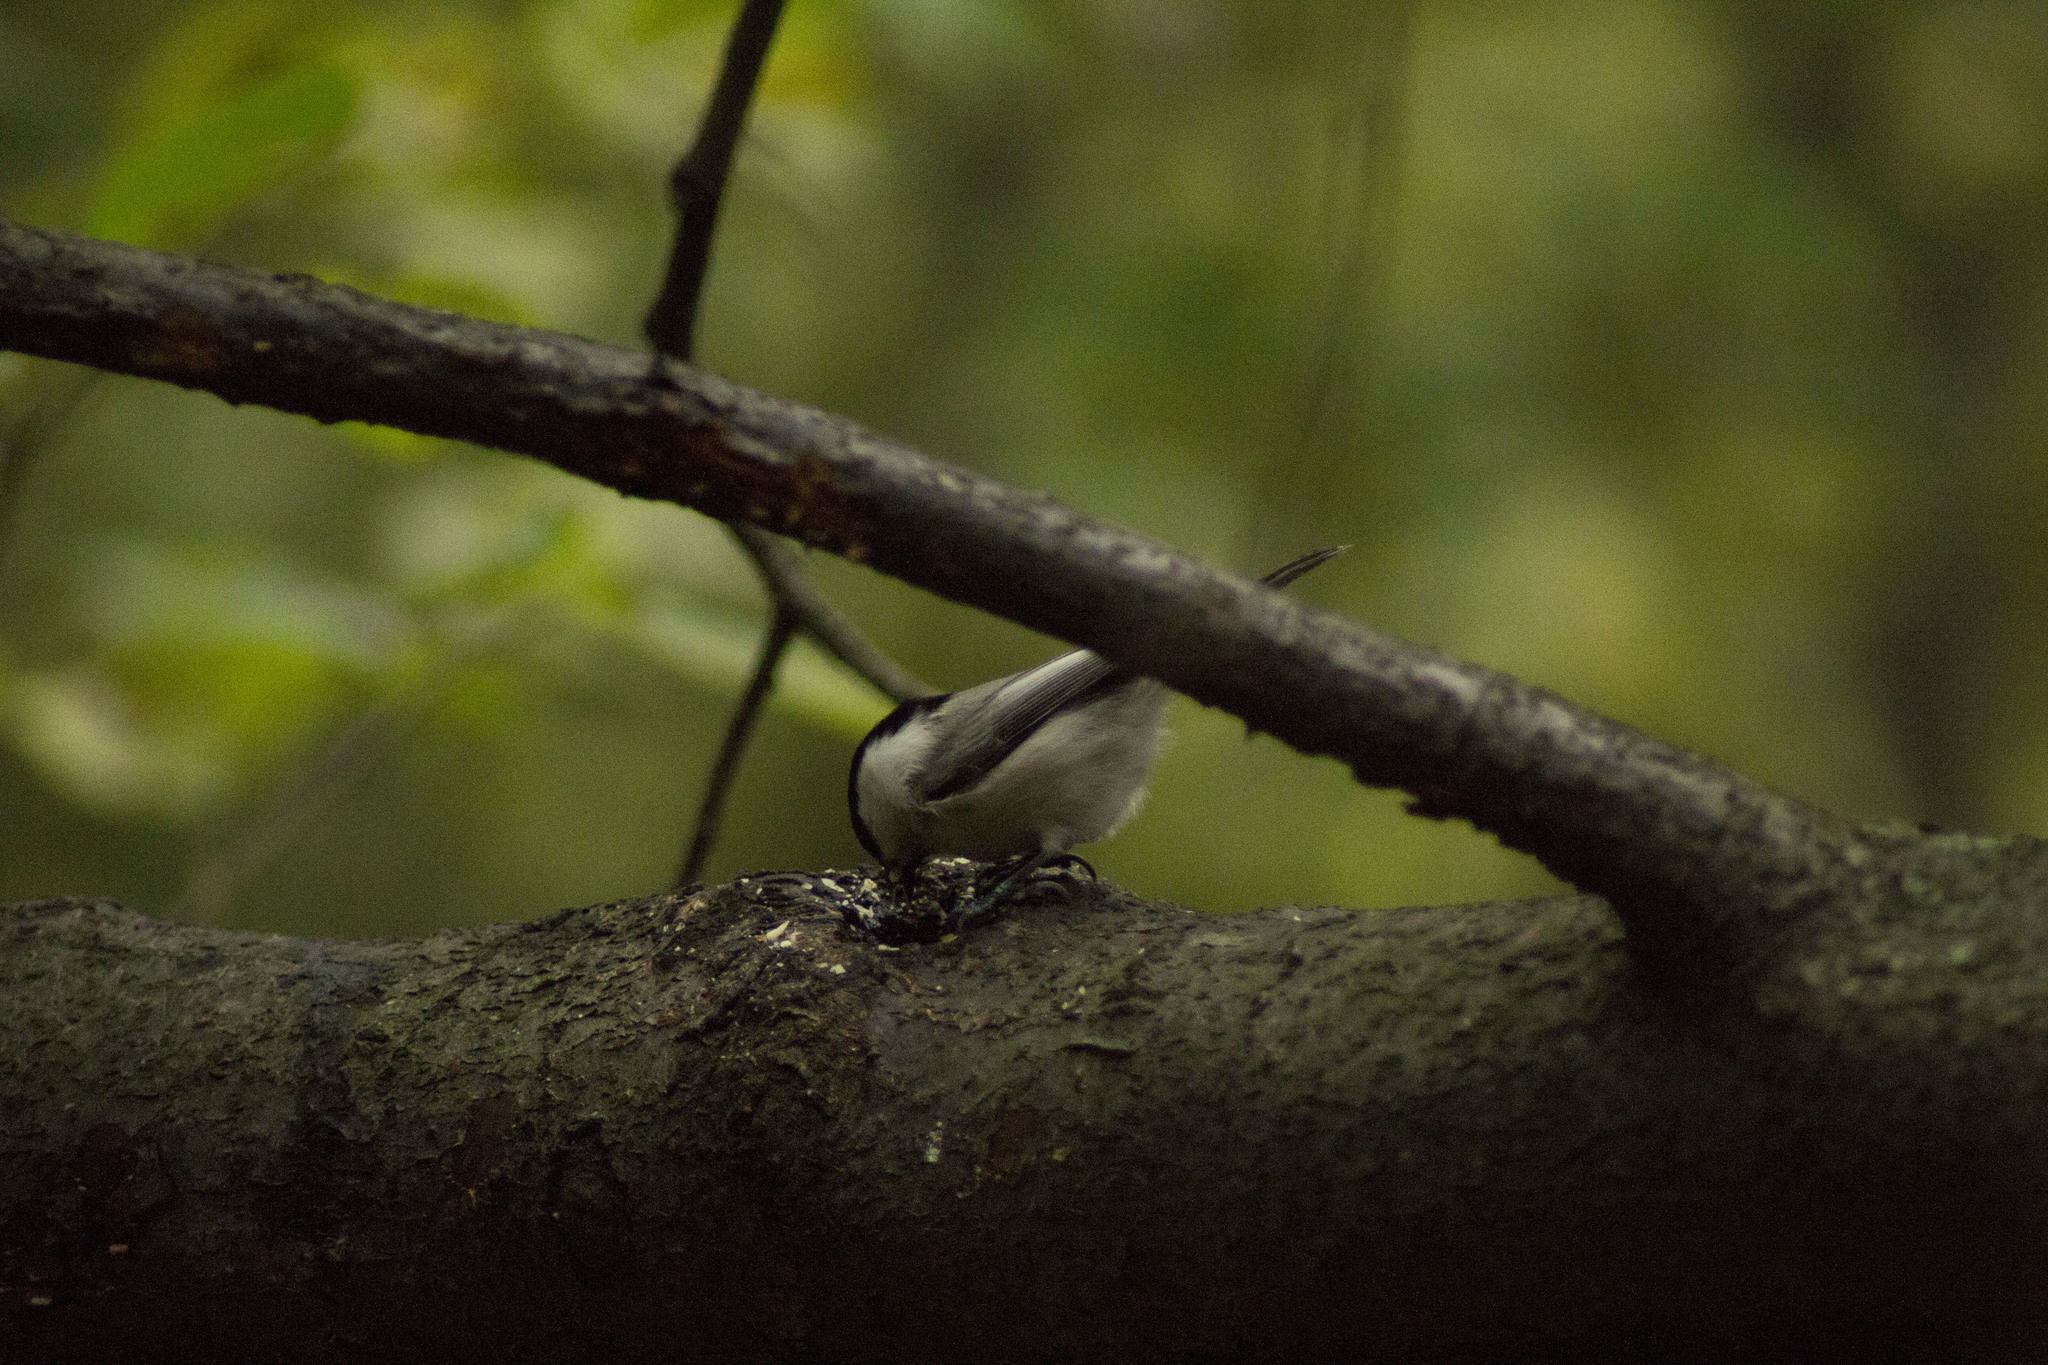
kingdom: Animalia
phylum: Chordata
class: Aves
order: Passeriformes
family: Paridae
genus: Poecile
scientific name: Poecile montanus
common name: Willow tit
